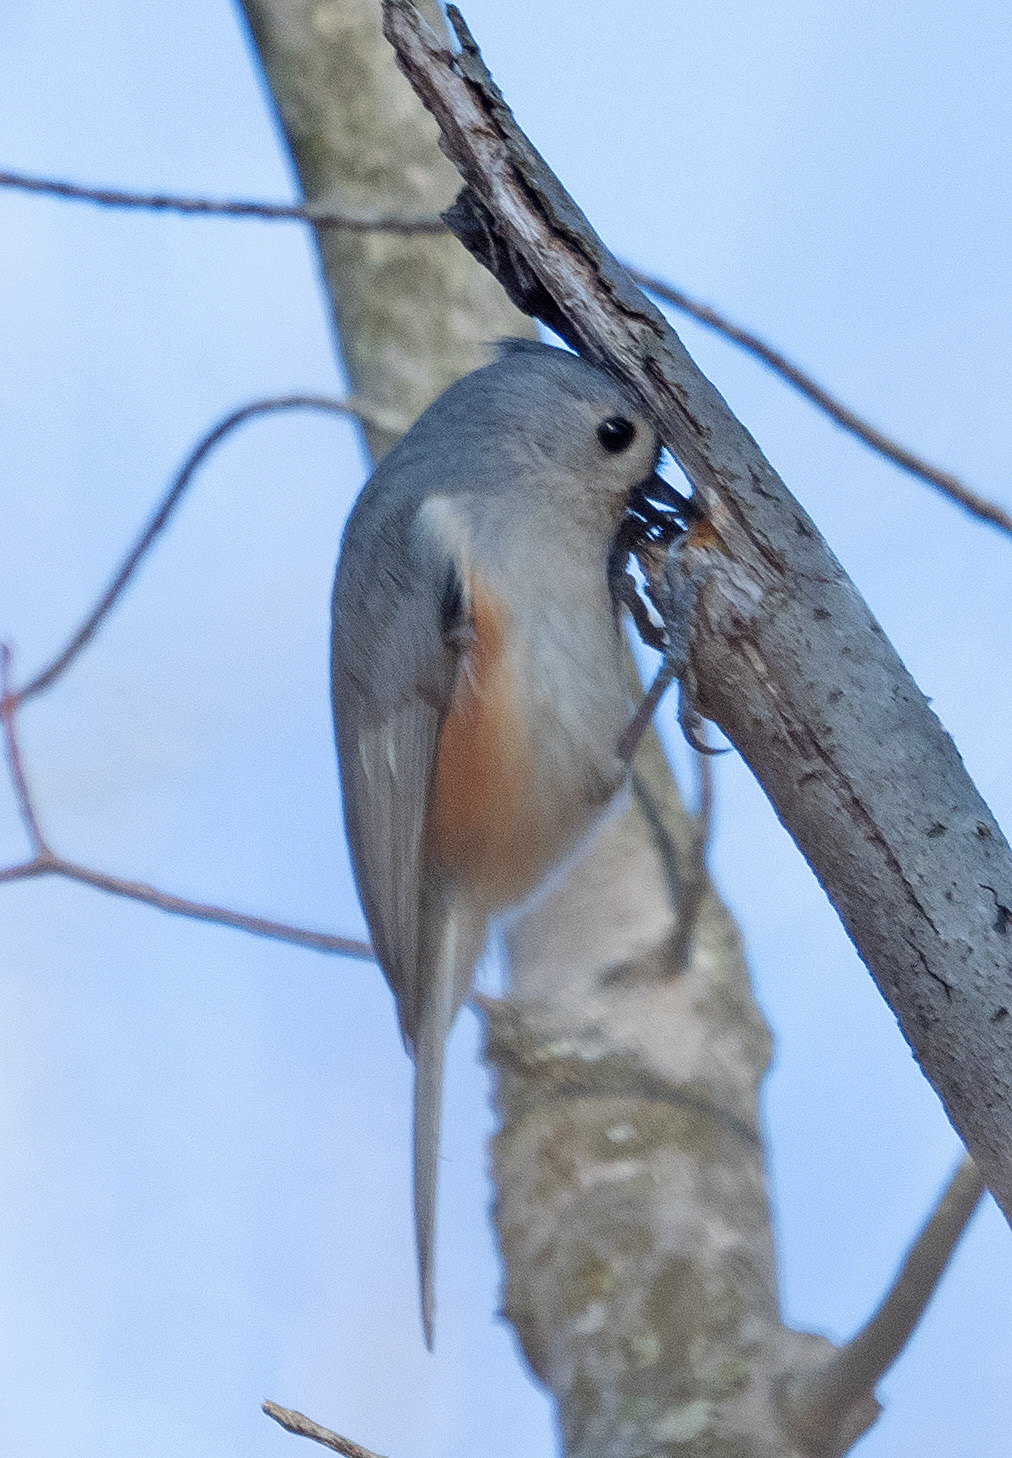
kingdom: Animalia
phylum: Chordata
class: Aves
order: Passeriformes
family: Paridae
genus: Baeolophus
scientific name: Baeolophus bicolor
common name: Tufted titmouse
